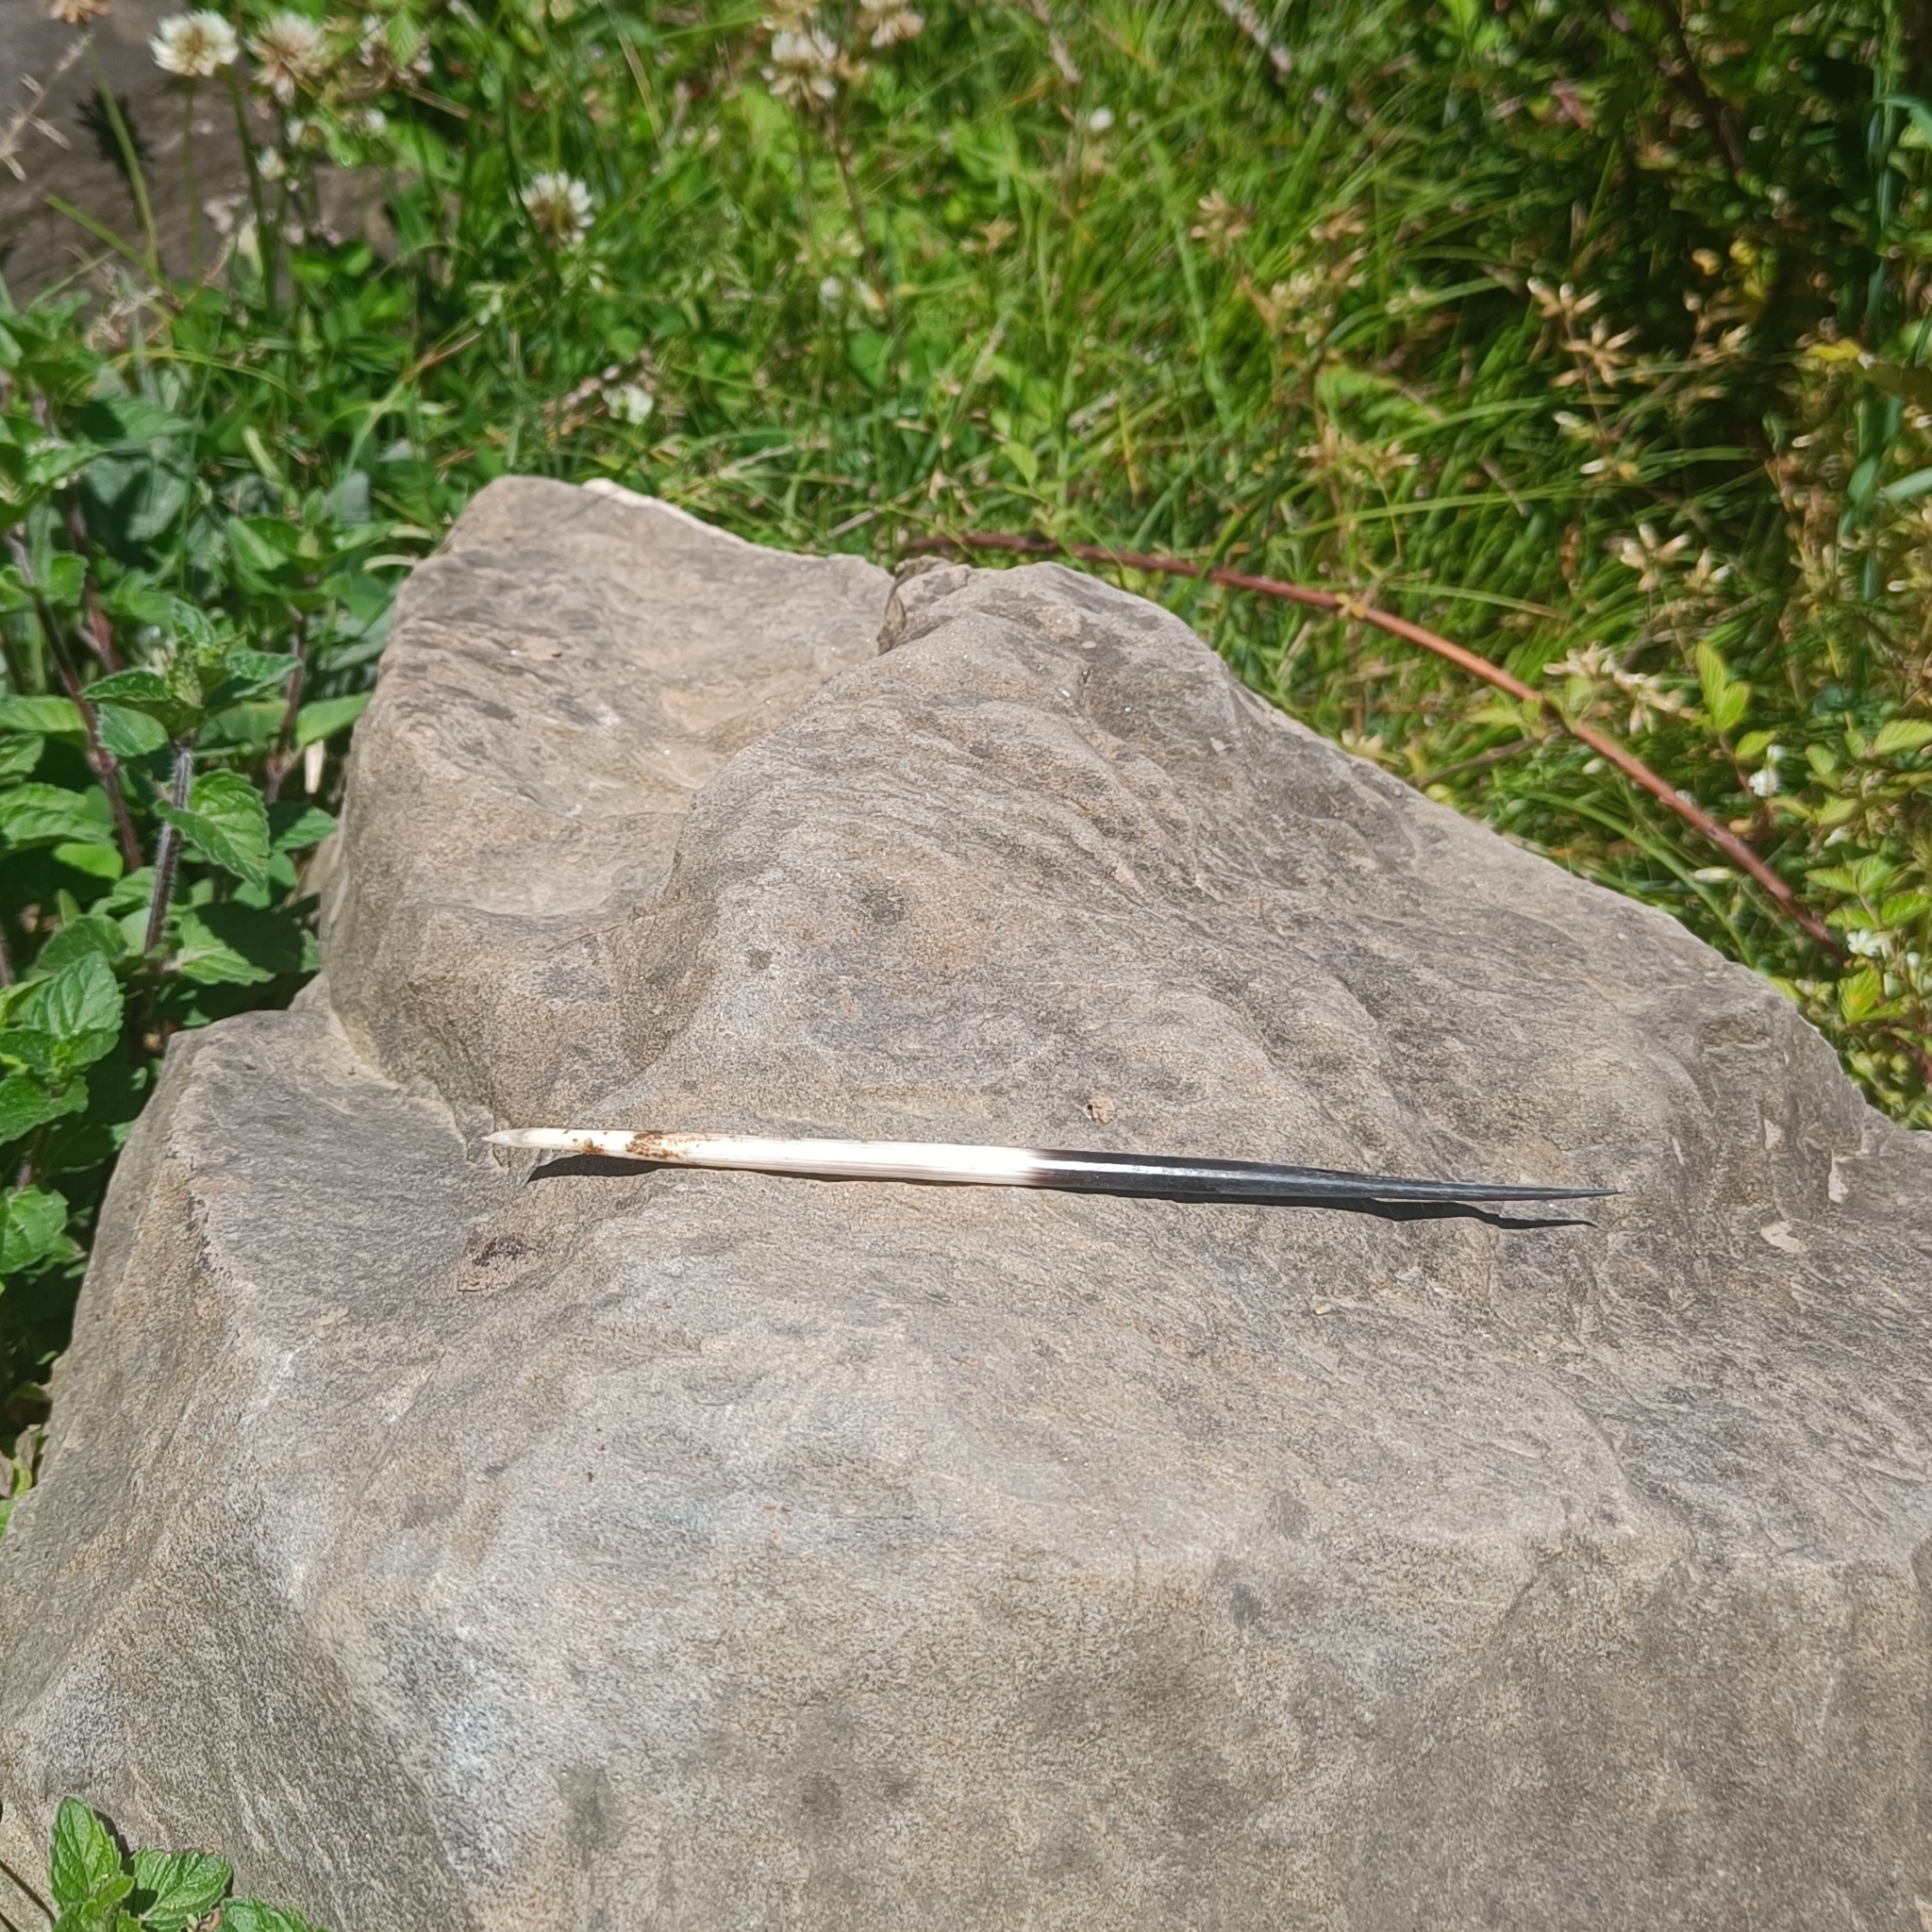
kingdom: Animalia
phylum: Chordata
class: Mammalia
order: Rodentia
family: Hystricidae
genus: Hystrix
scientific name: Hystrix indica
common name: Indian crested porcupine
